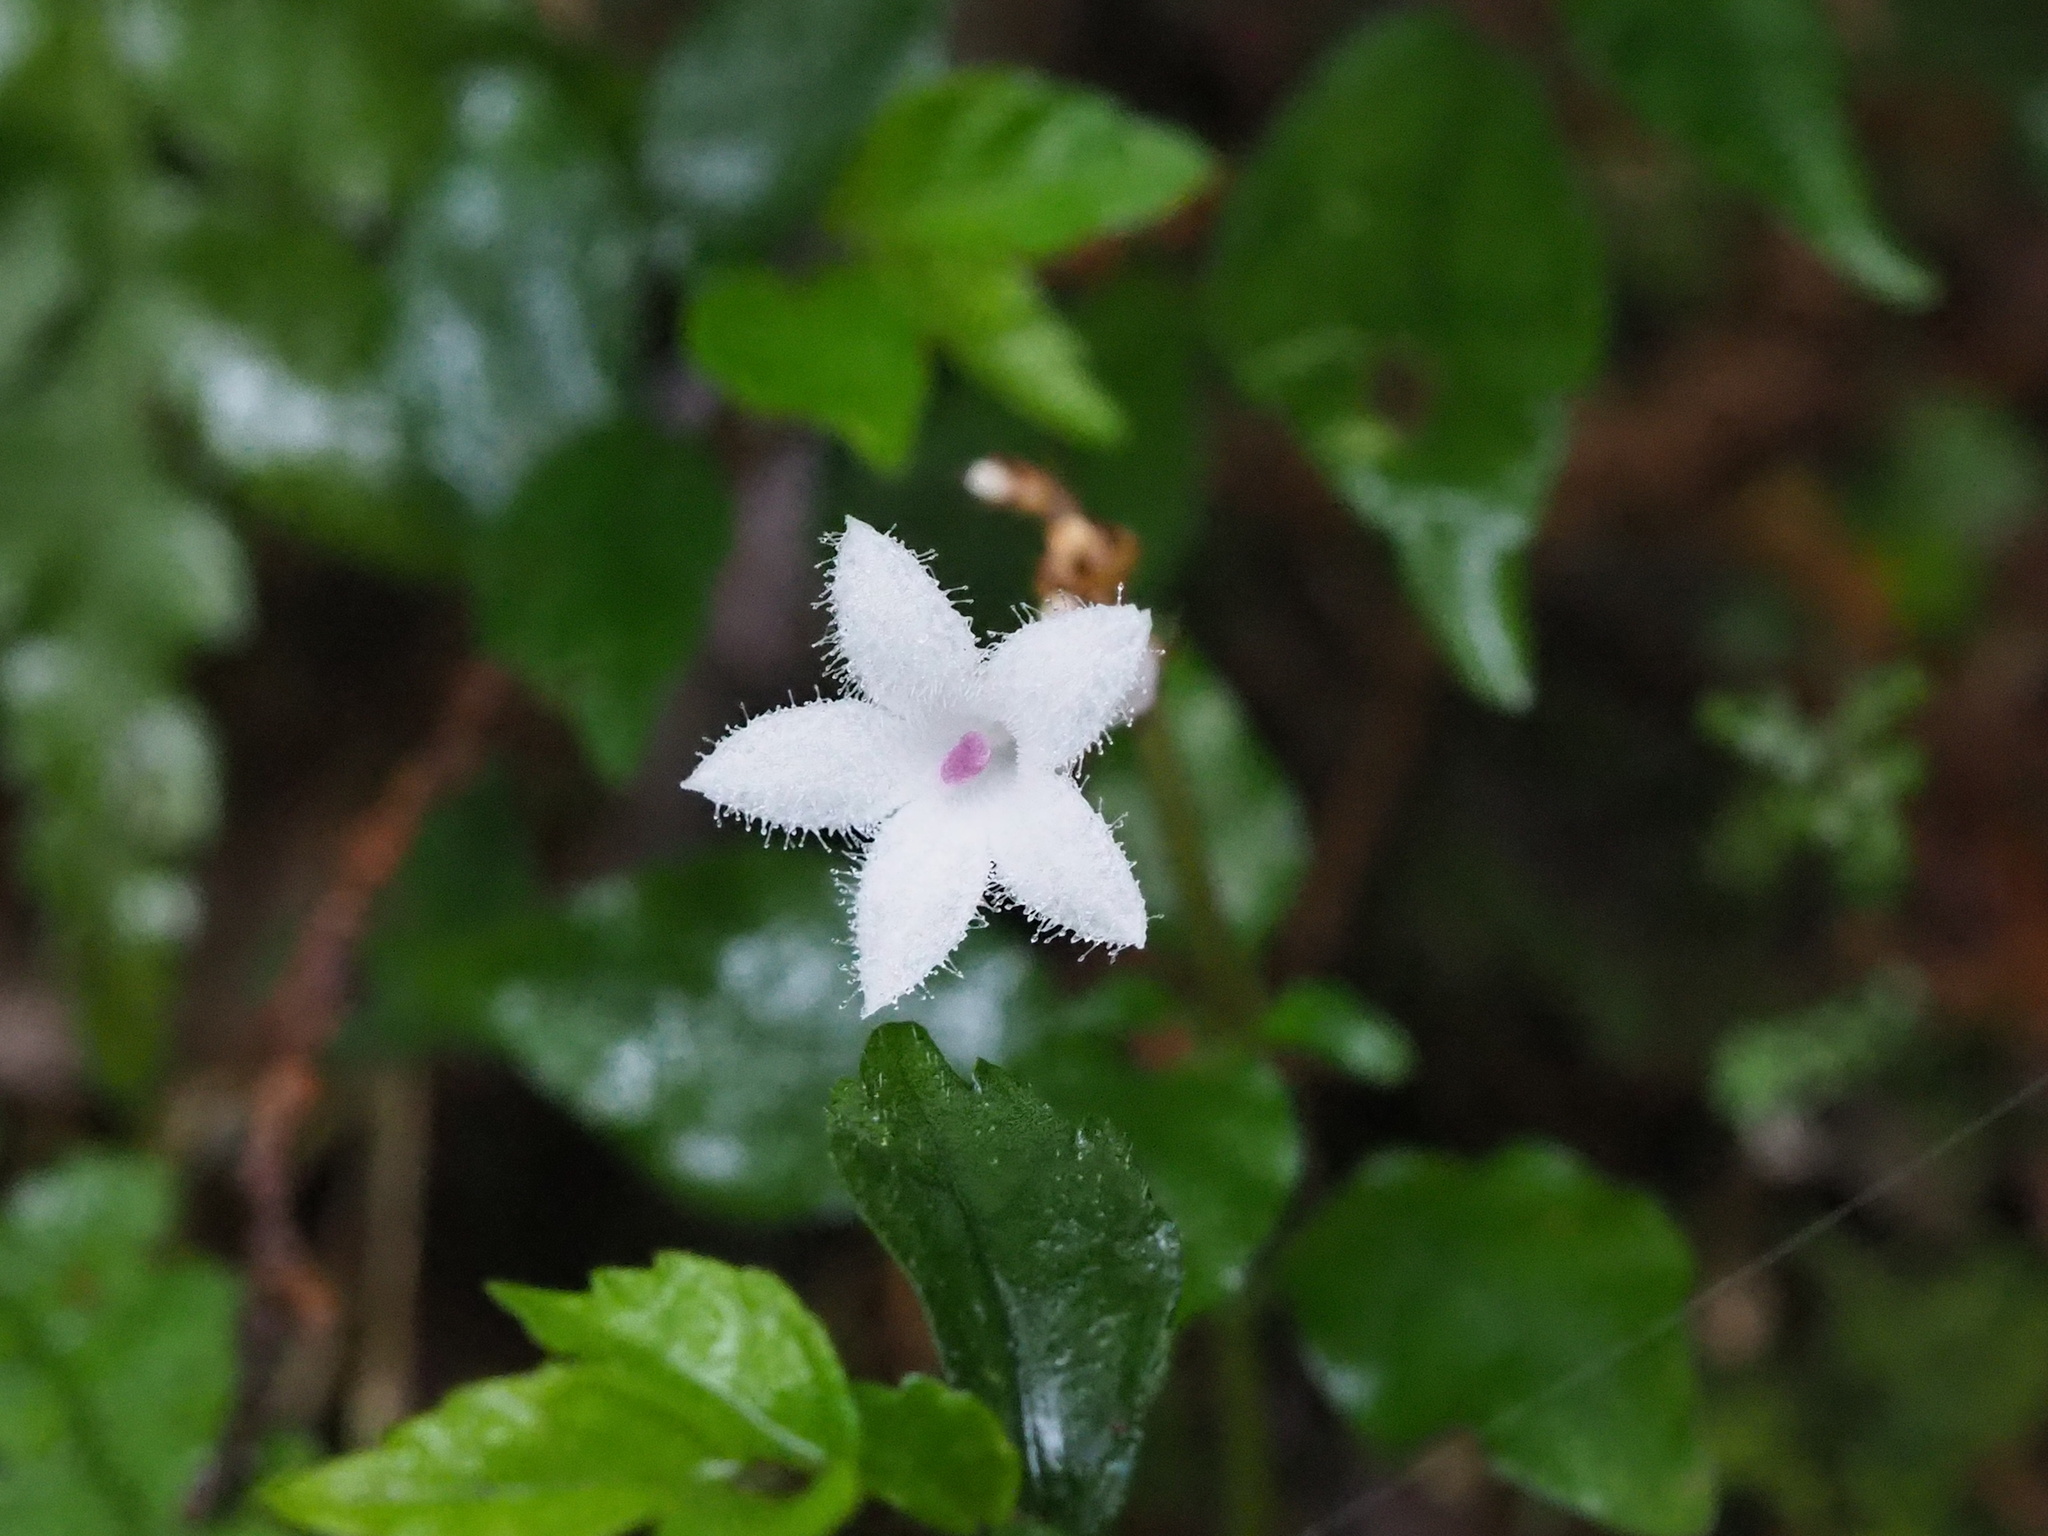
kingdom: Plantae
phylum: Tracheophyta
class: Magnoliopsida
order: Gentianales
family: Rubiaceae
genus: Ophiorrhiza
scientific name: Ophiorrhiza japonica
